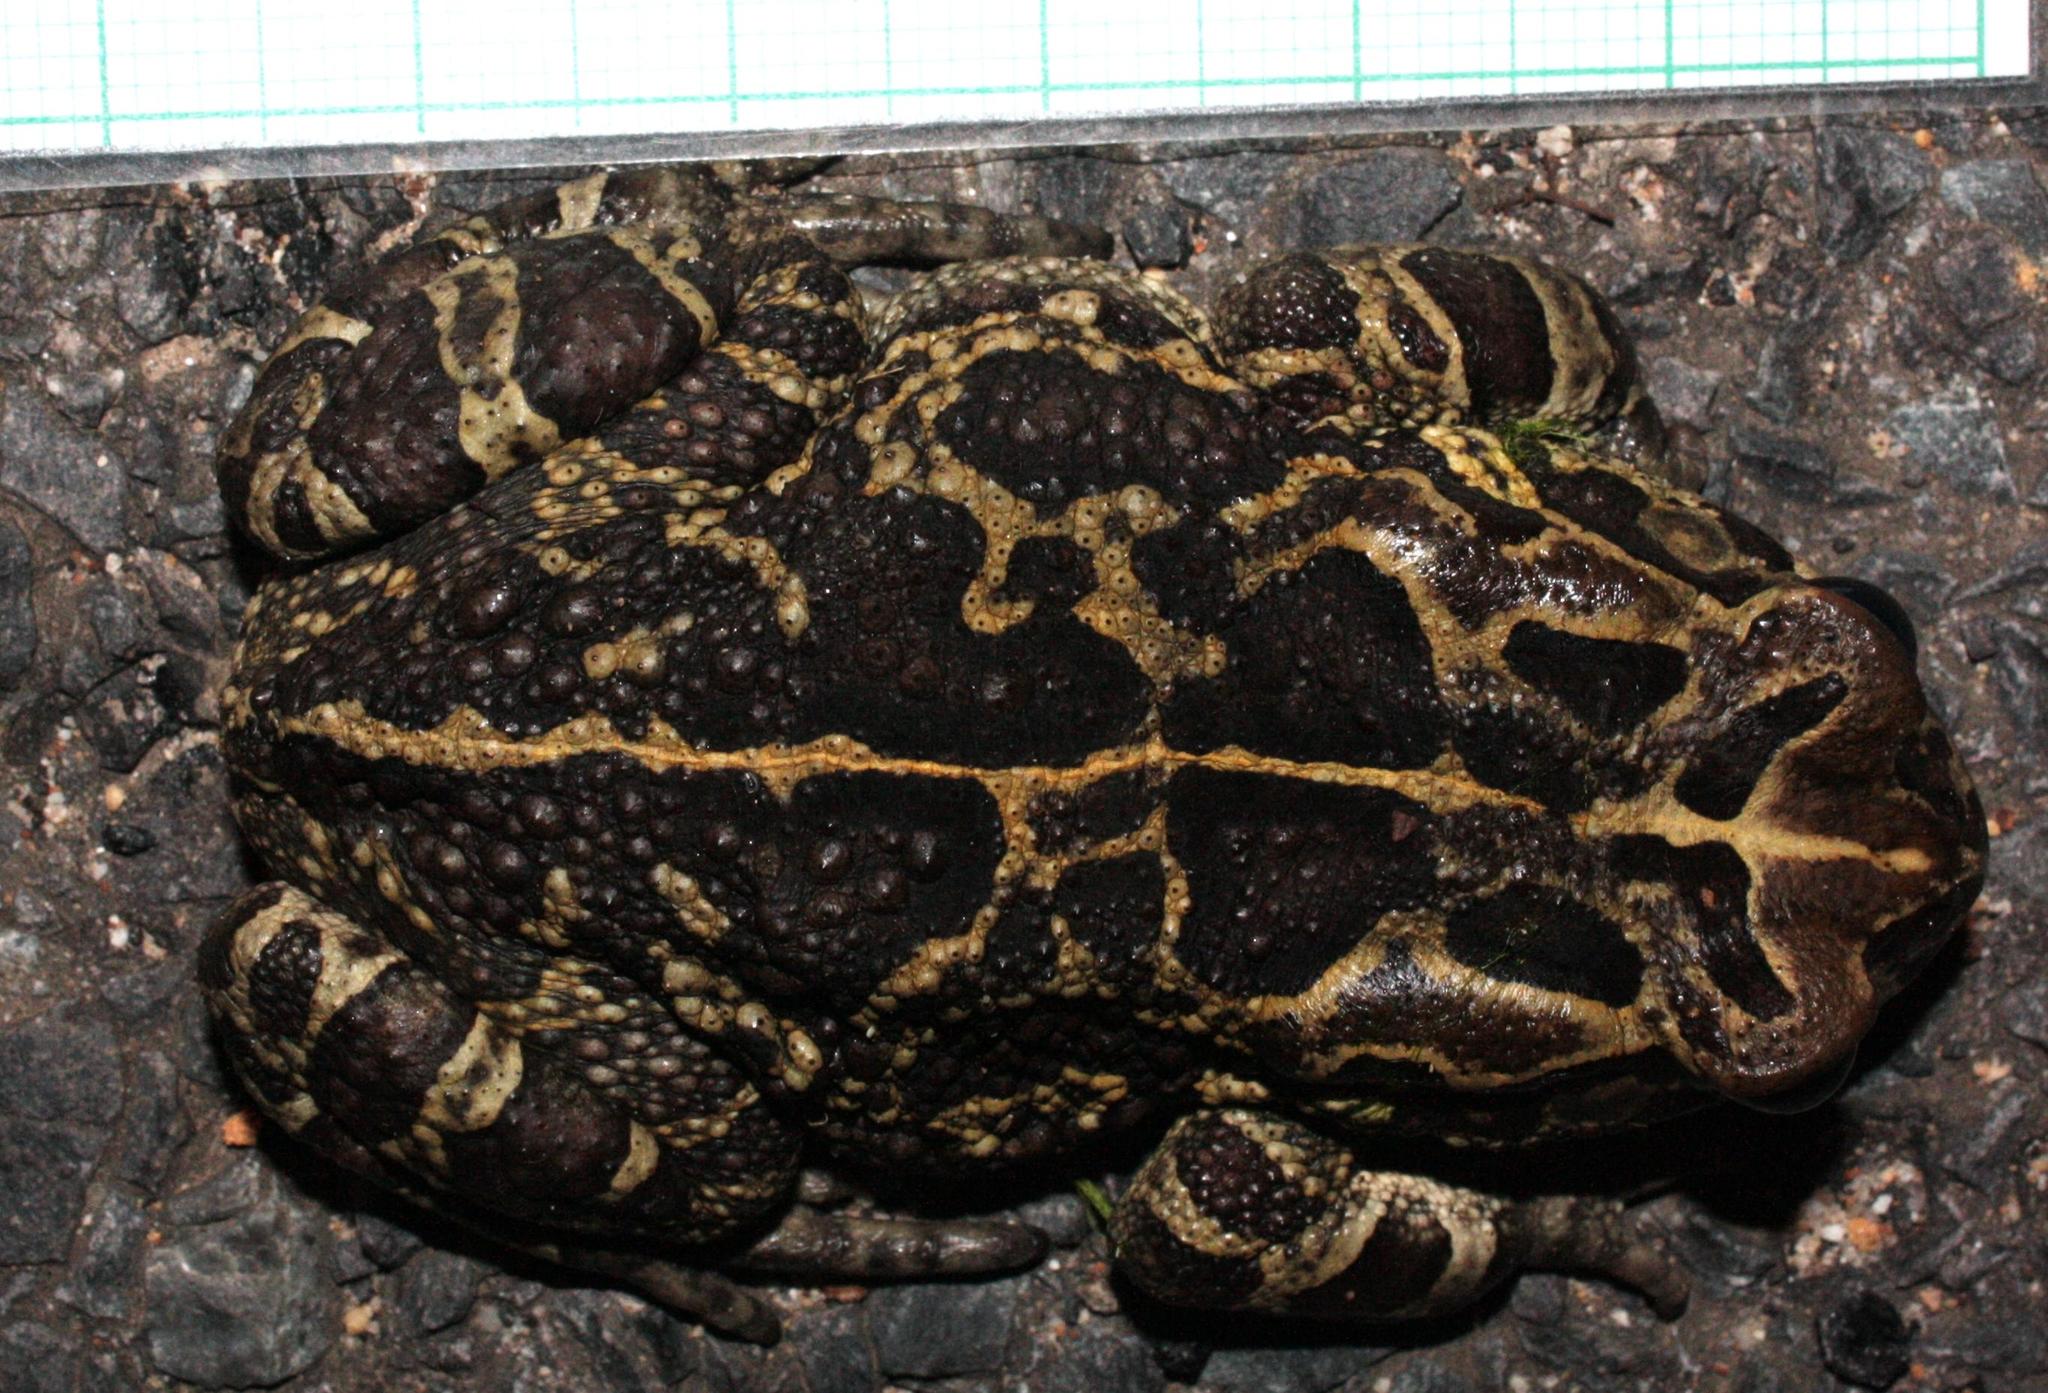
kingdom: Animalia
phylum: Chordata
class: Amphibia
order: Anura
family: Bufonidae
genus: Sclerophrys
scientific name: Sclerophrys pantherina
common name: Panther toad
